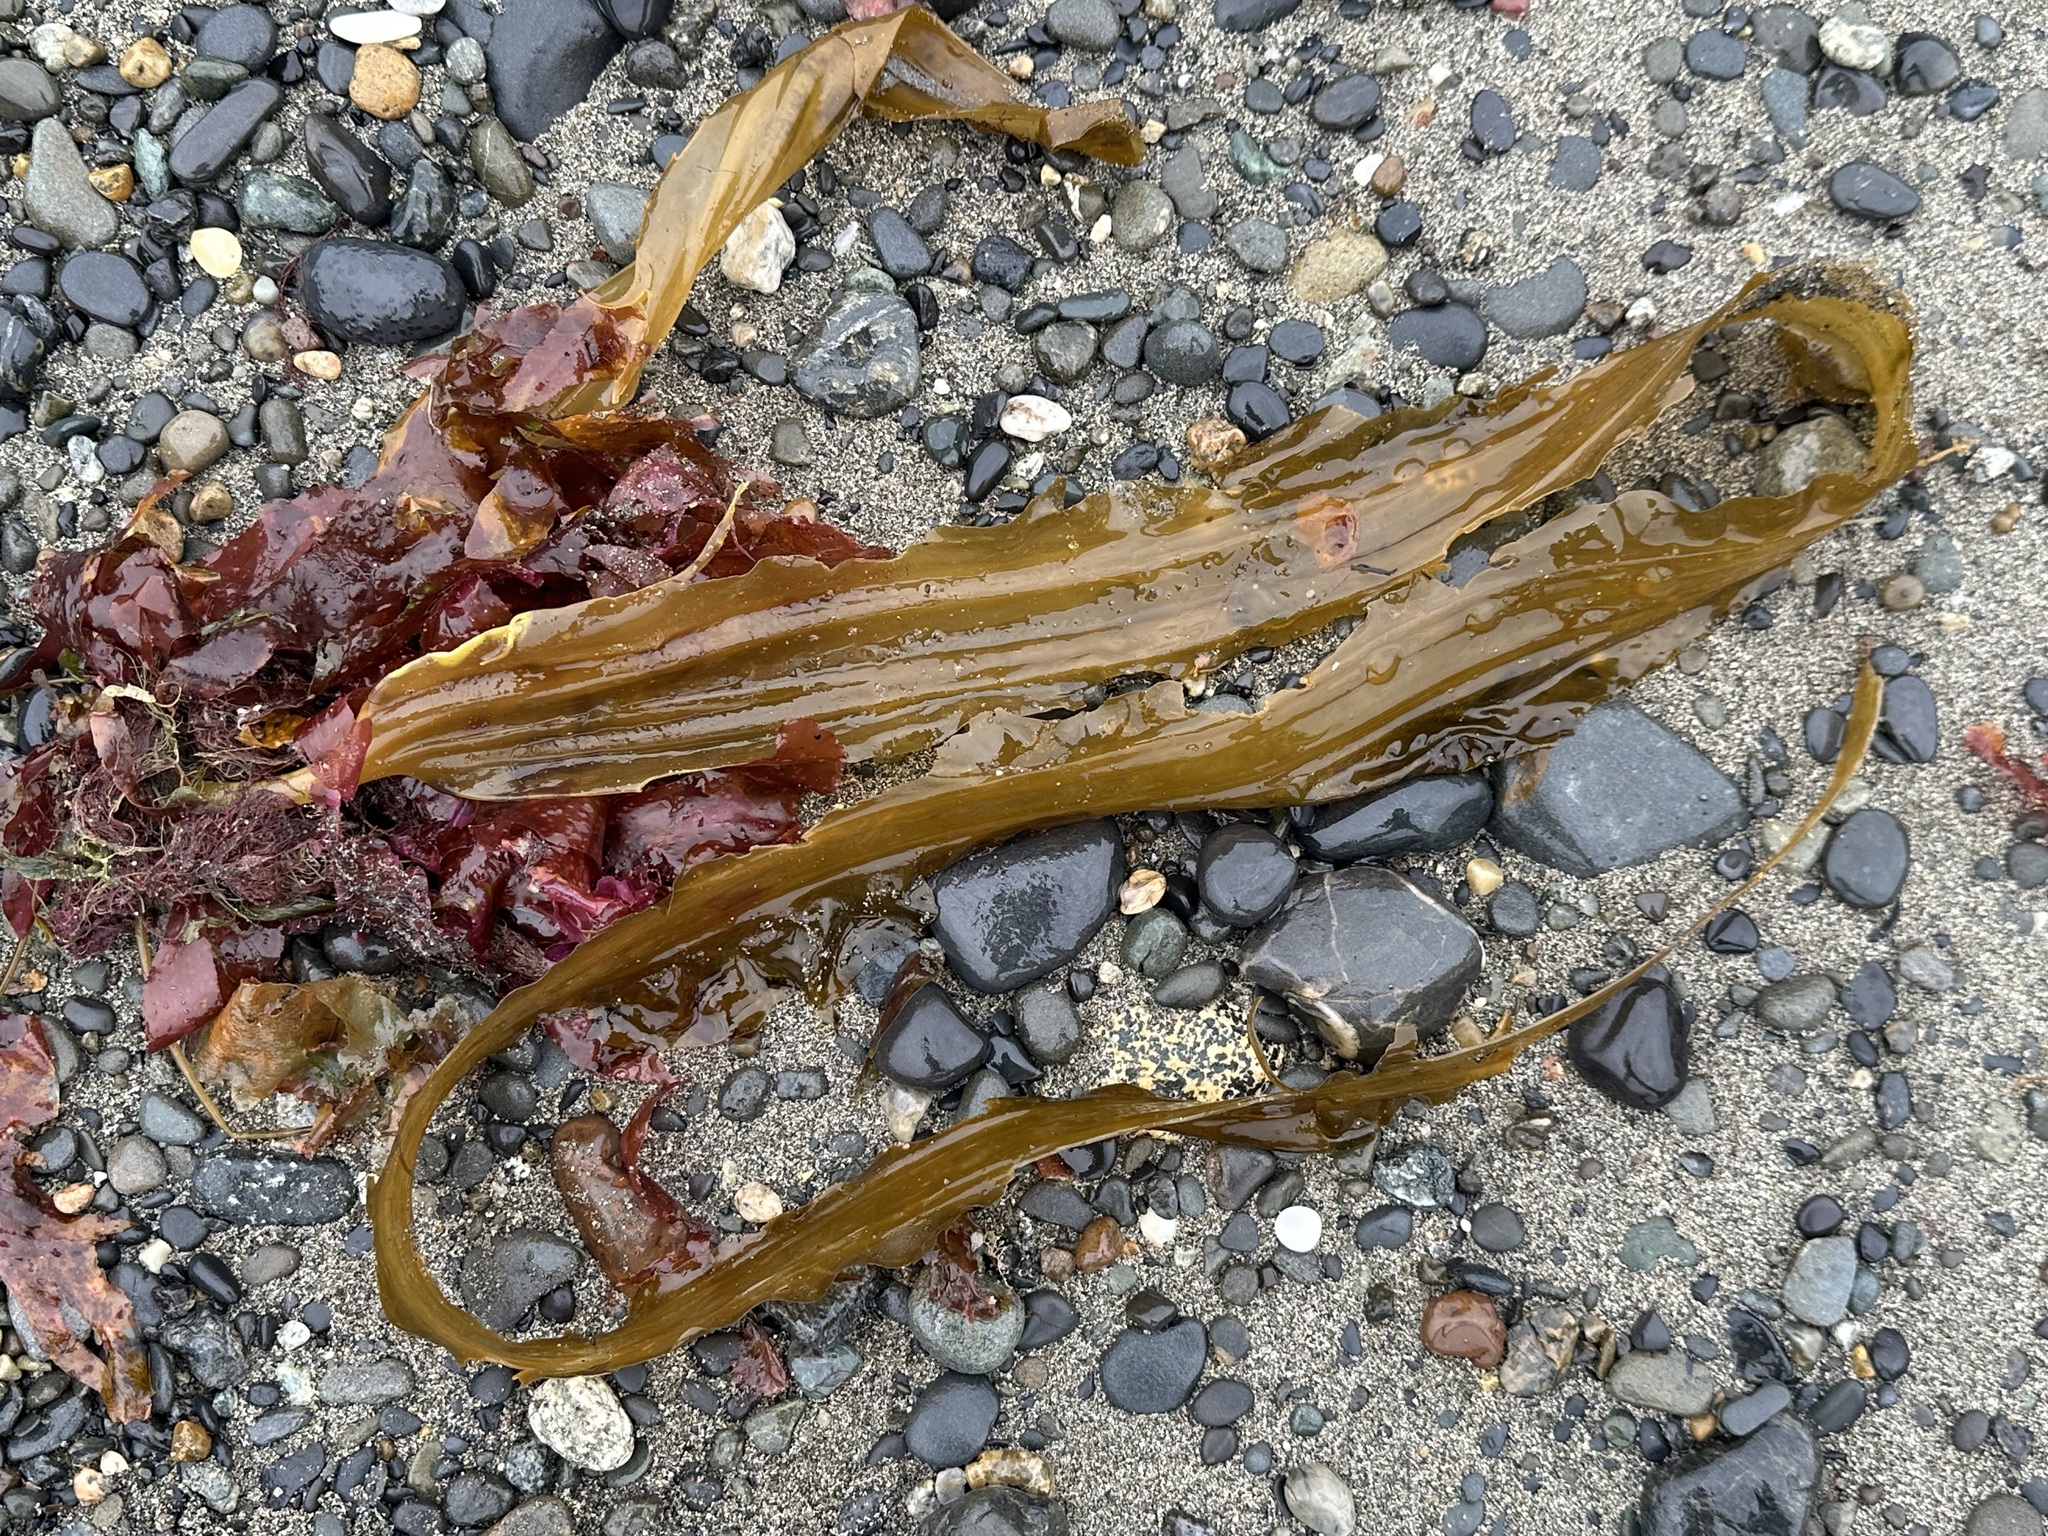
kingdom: Chromista
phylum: Ochrophyta
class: Phaeophyceae
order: Laminariales
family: Laminariaceae
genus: Cymathaere
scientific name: Cymathaere triplicata
